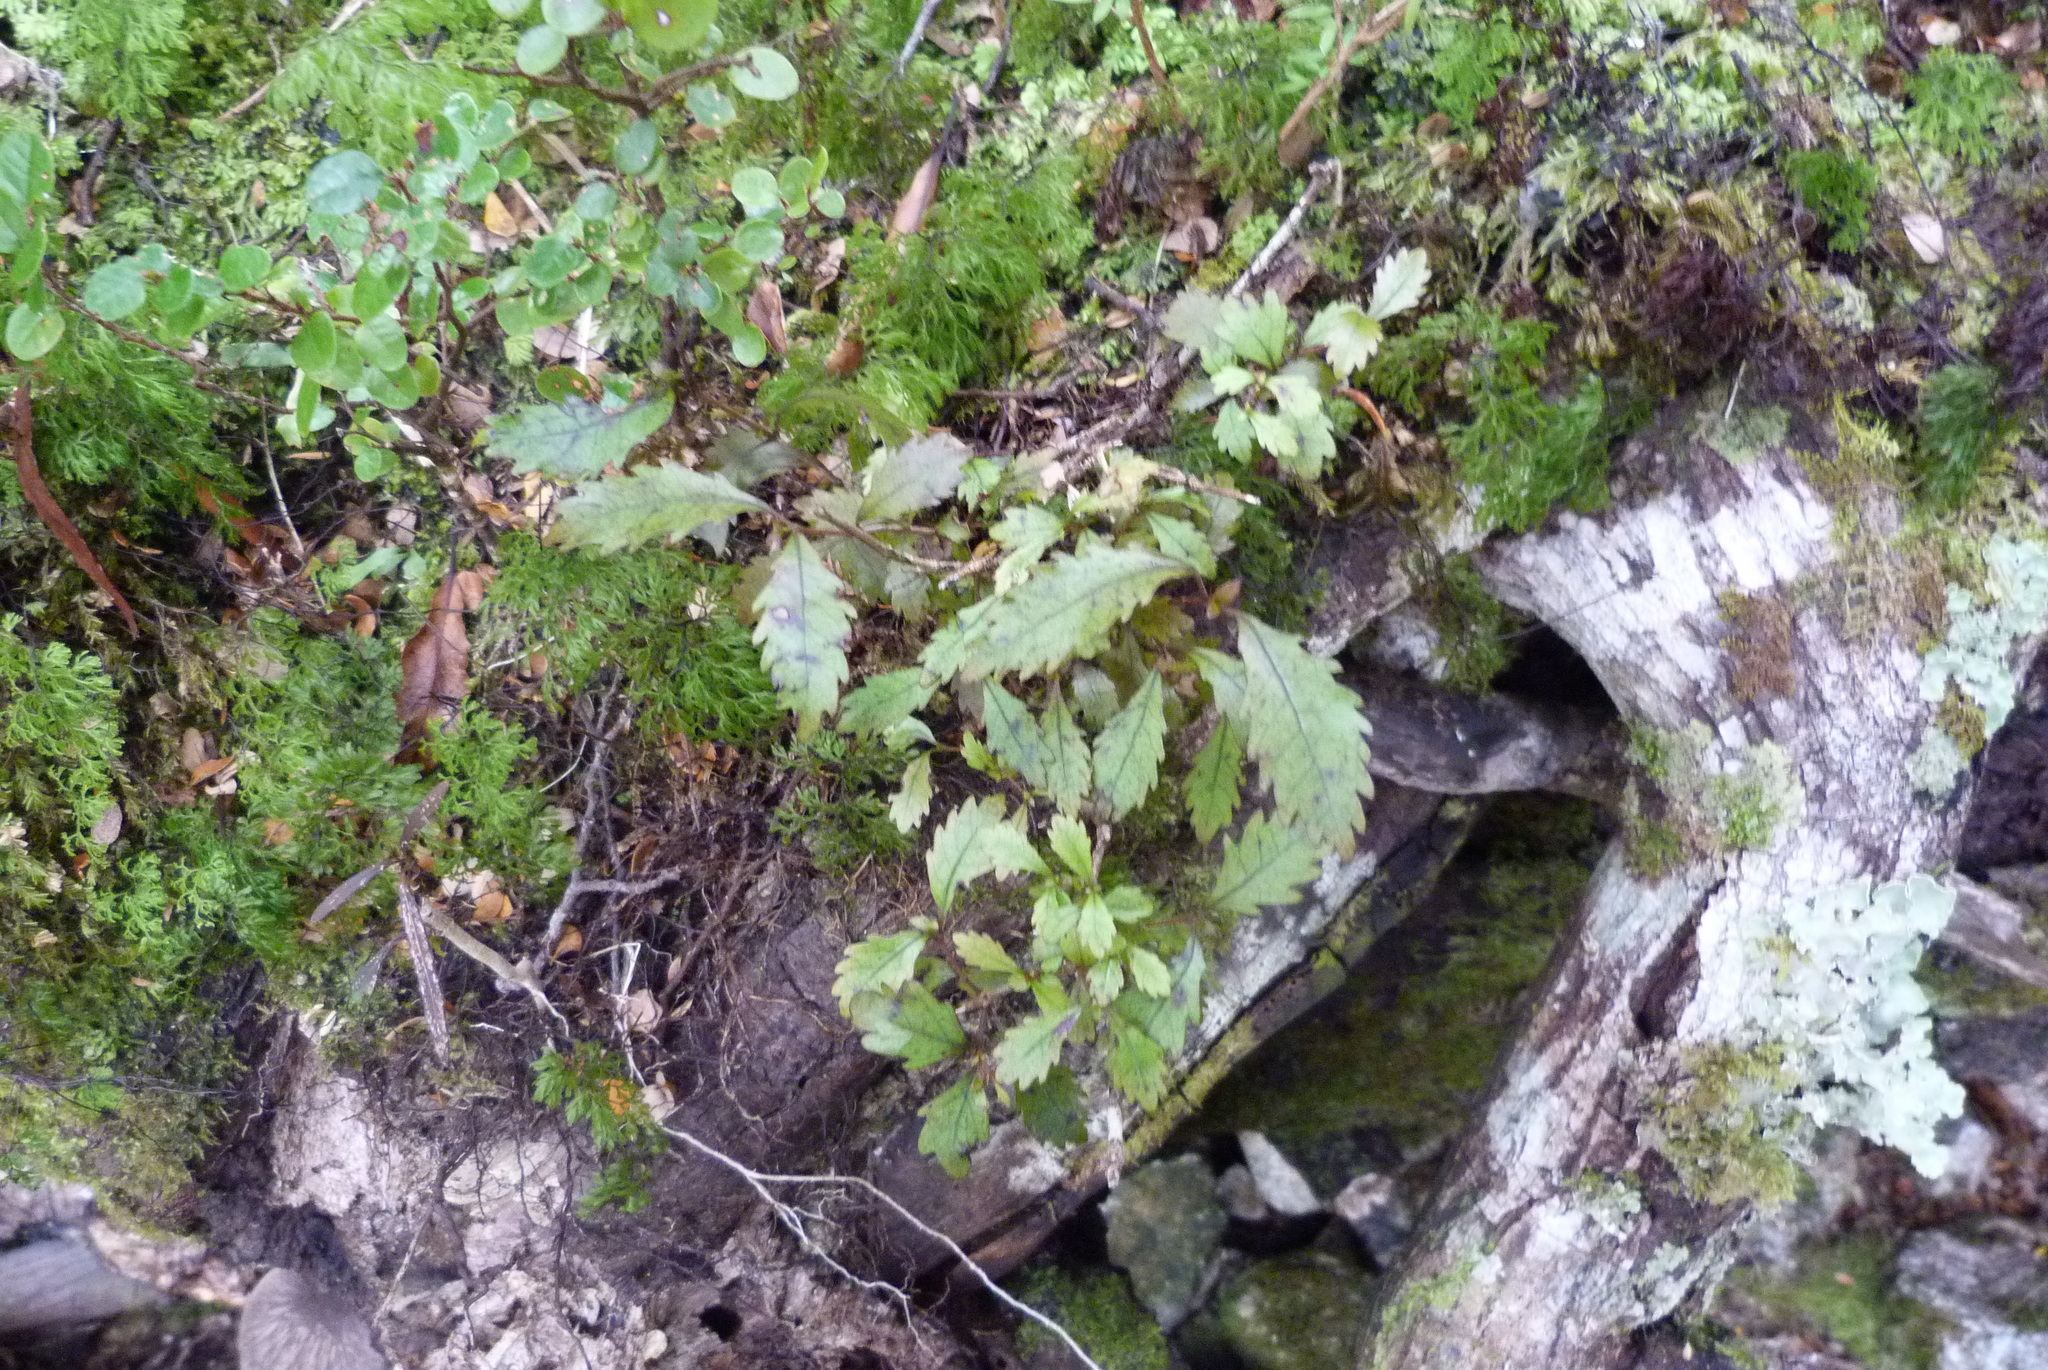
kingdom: Plantae
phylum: Tracheophyta
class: Magnoliopsida
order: Oxalidales
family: Cunoniaceae
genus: Pterophylla
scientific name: Pterophylla racemosa
